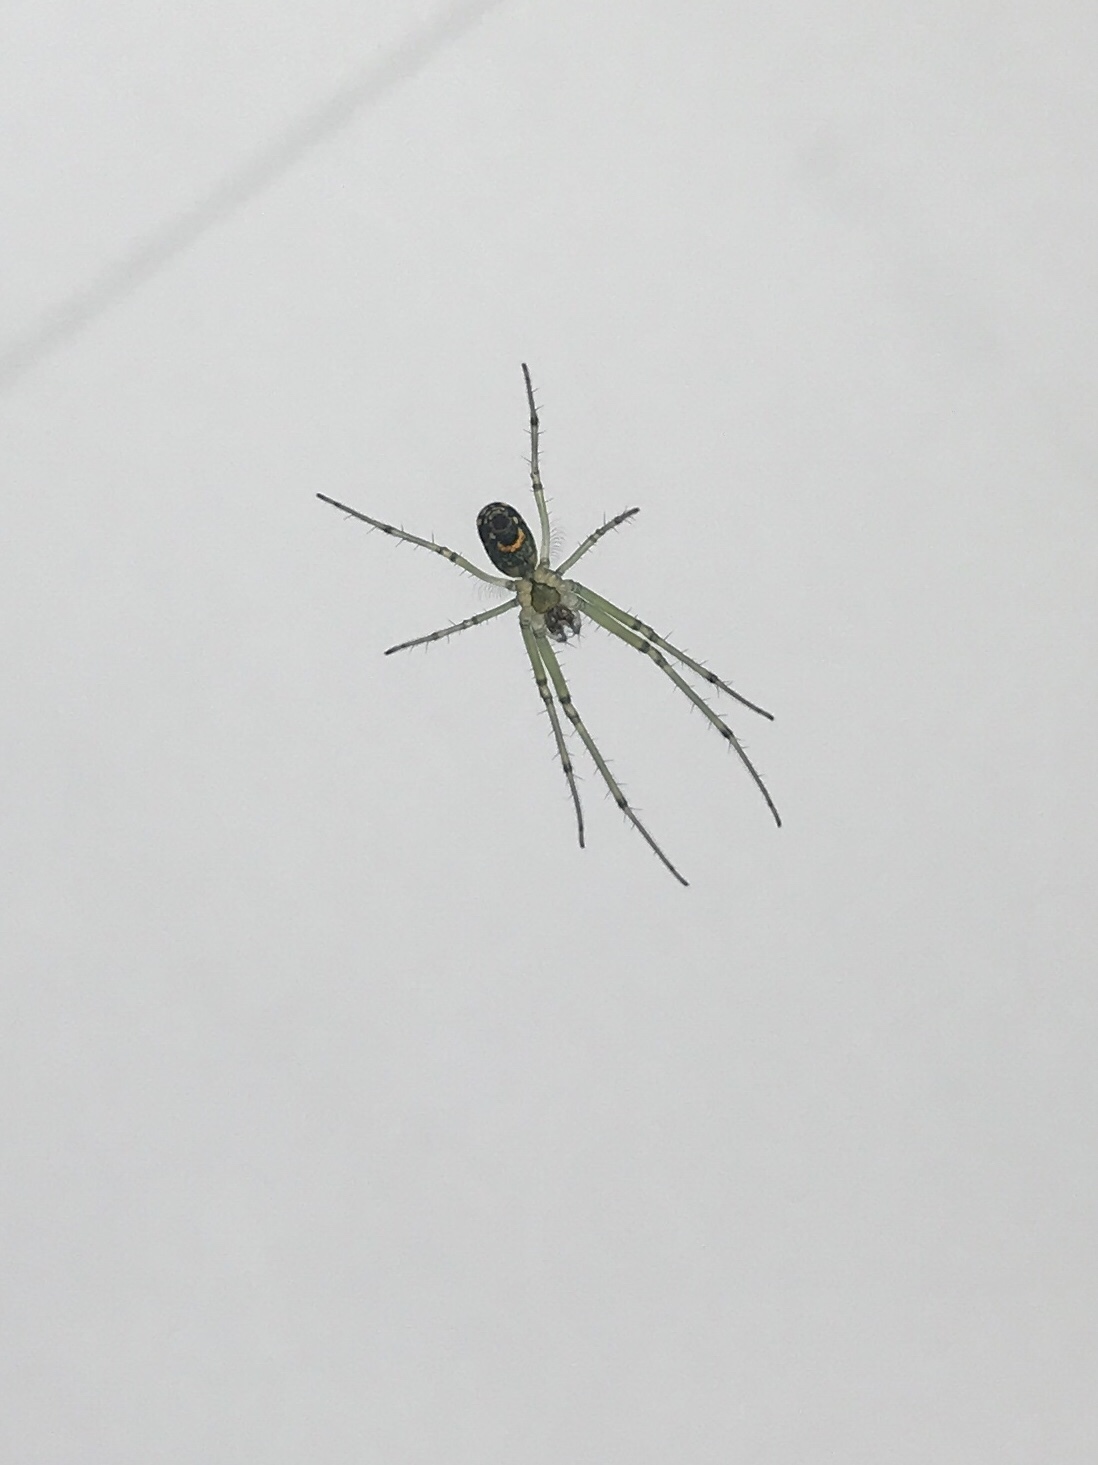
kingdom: Animalia
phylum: Arthropoda
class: Arachnida
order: Araneae
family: Tetragnathidae
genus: Leucauge
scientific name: Leucauge venusta
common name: Longjawed orb weavers
